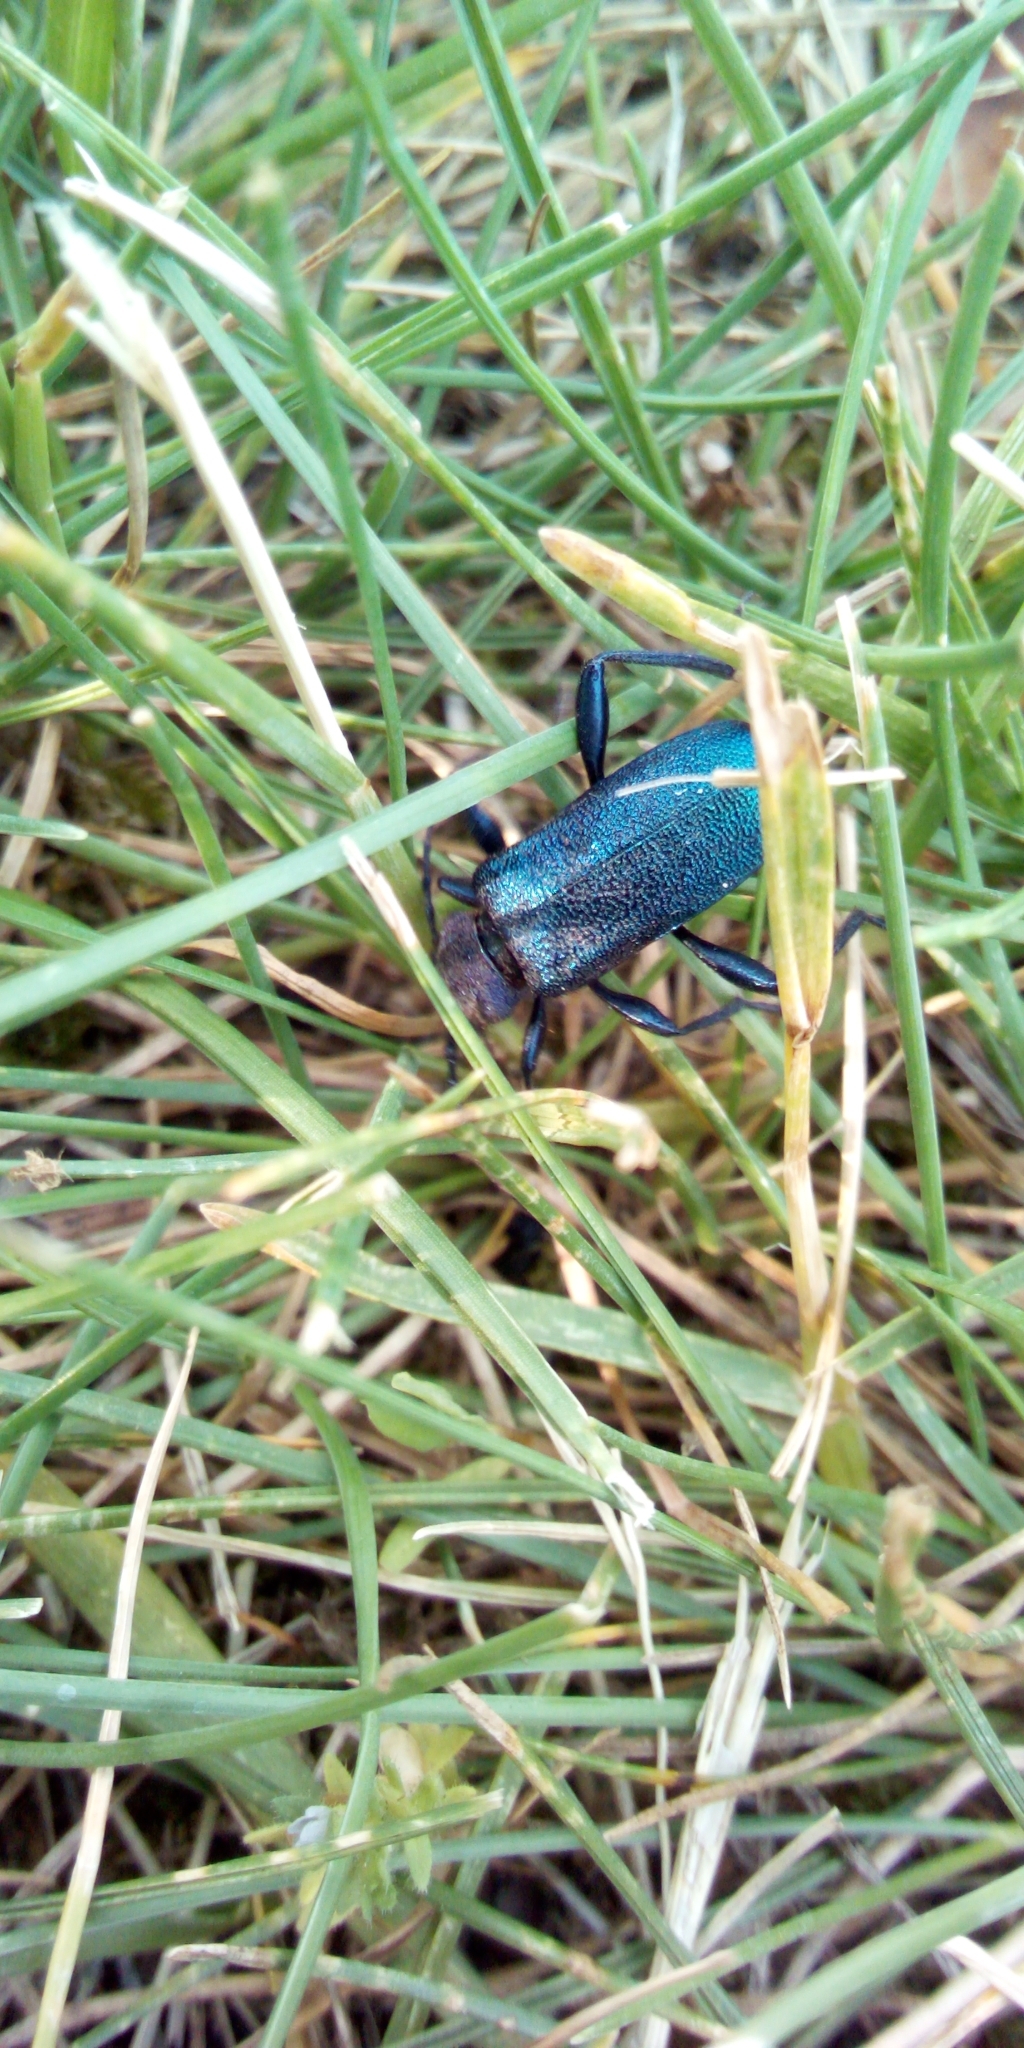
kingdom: Animalia
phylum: Arthropoda
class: Insecta
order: Coleoptera
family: Cerambycidae
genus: Callidium
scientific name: Callidium violaceum
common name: Violet tanbark beetle
